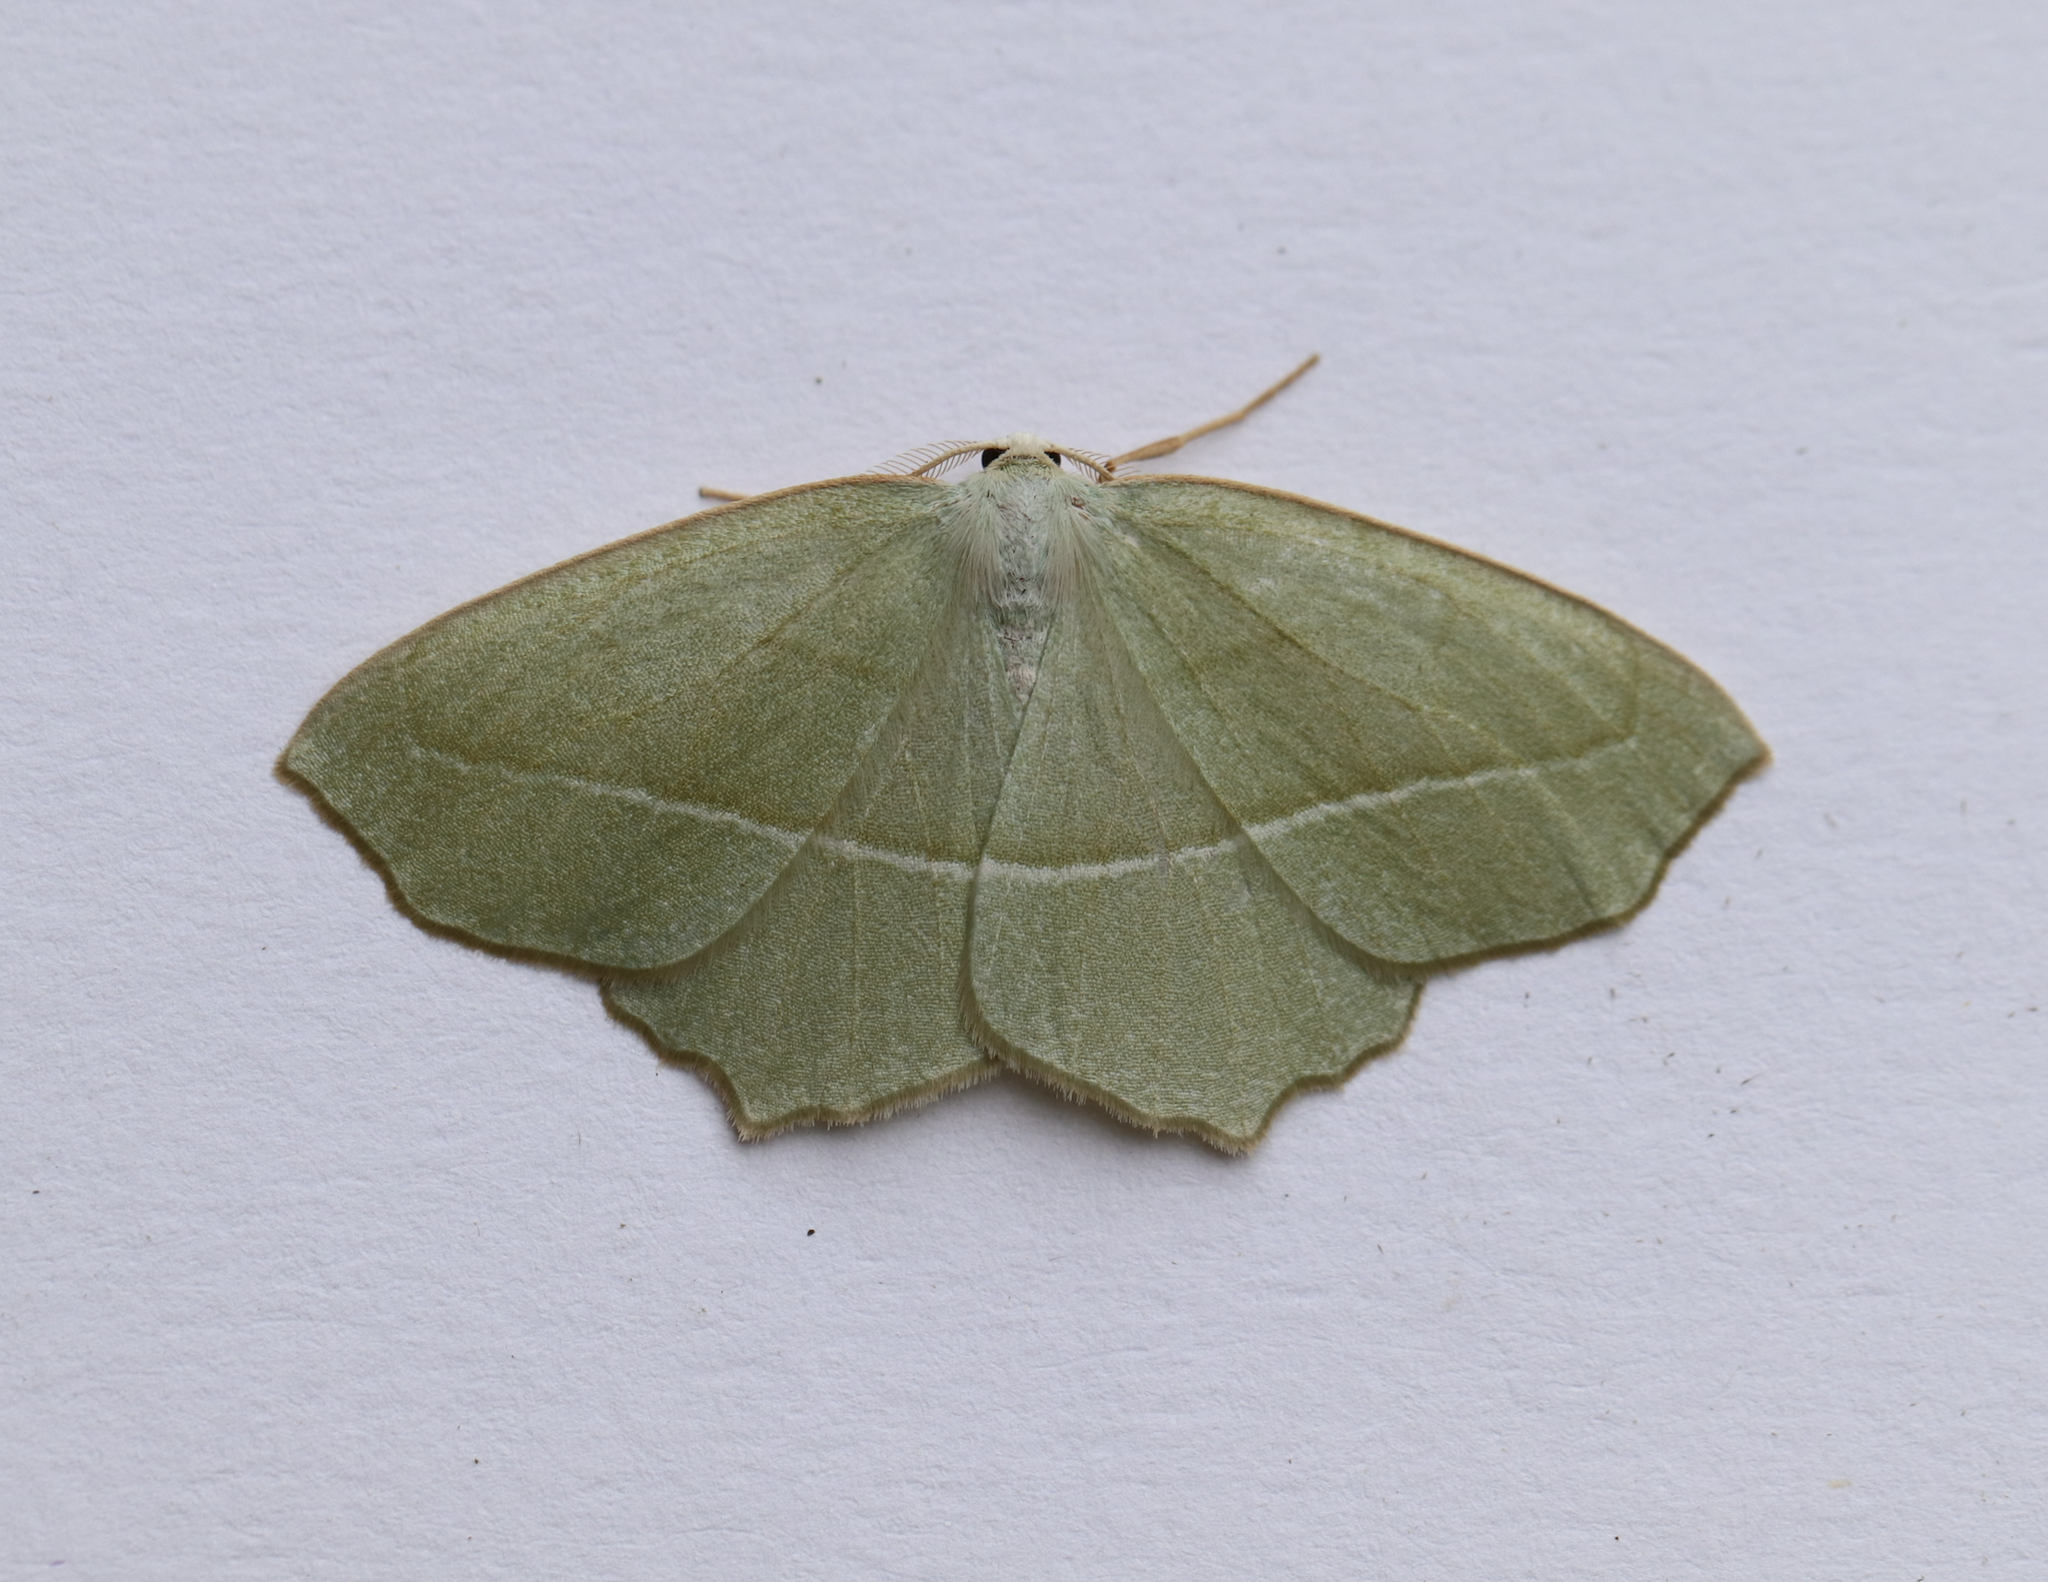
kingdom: Animalia
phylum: Arthropoda
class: Insecta
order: Lepidoptera
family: Geometridae
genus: Campaea
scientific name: Campaea perlata
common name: Fringed looper
